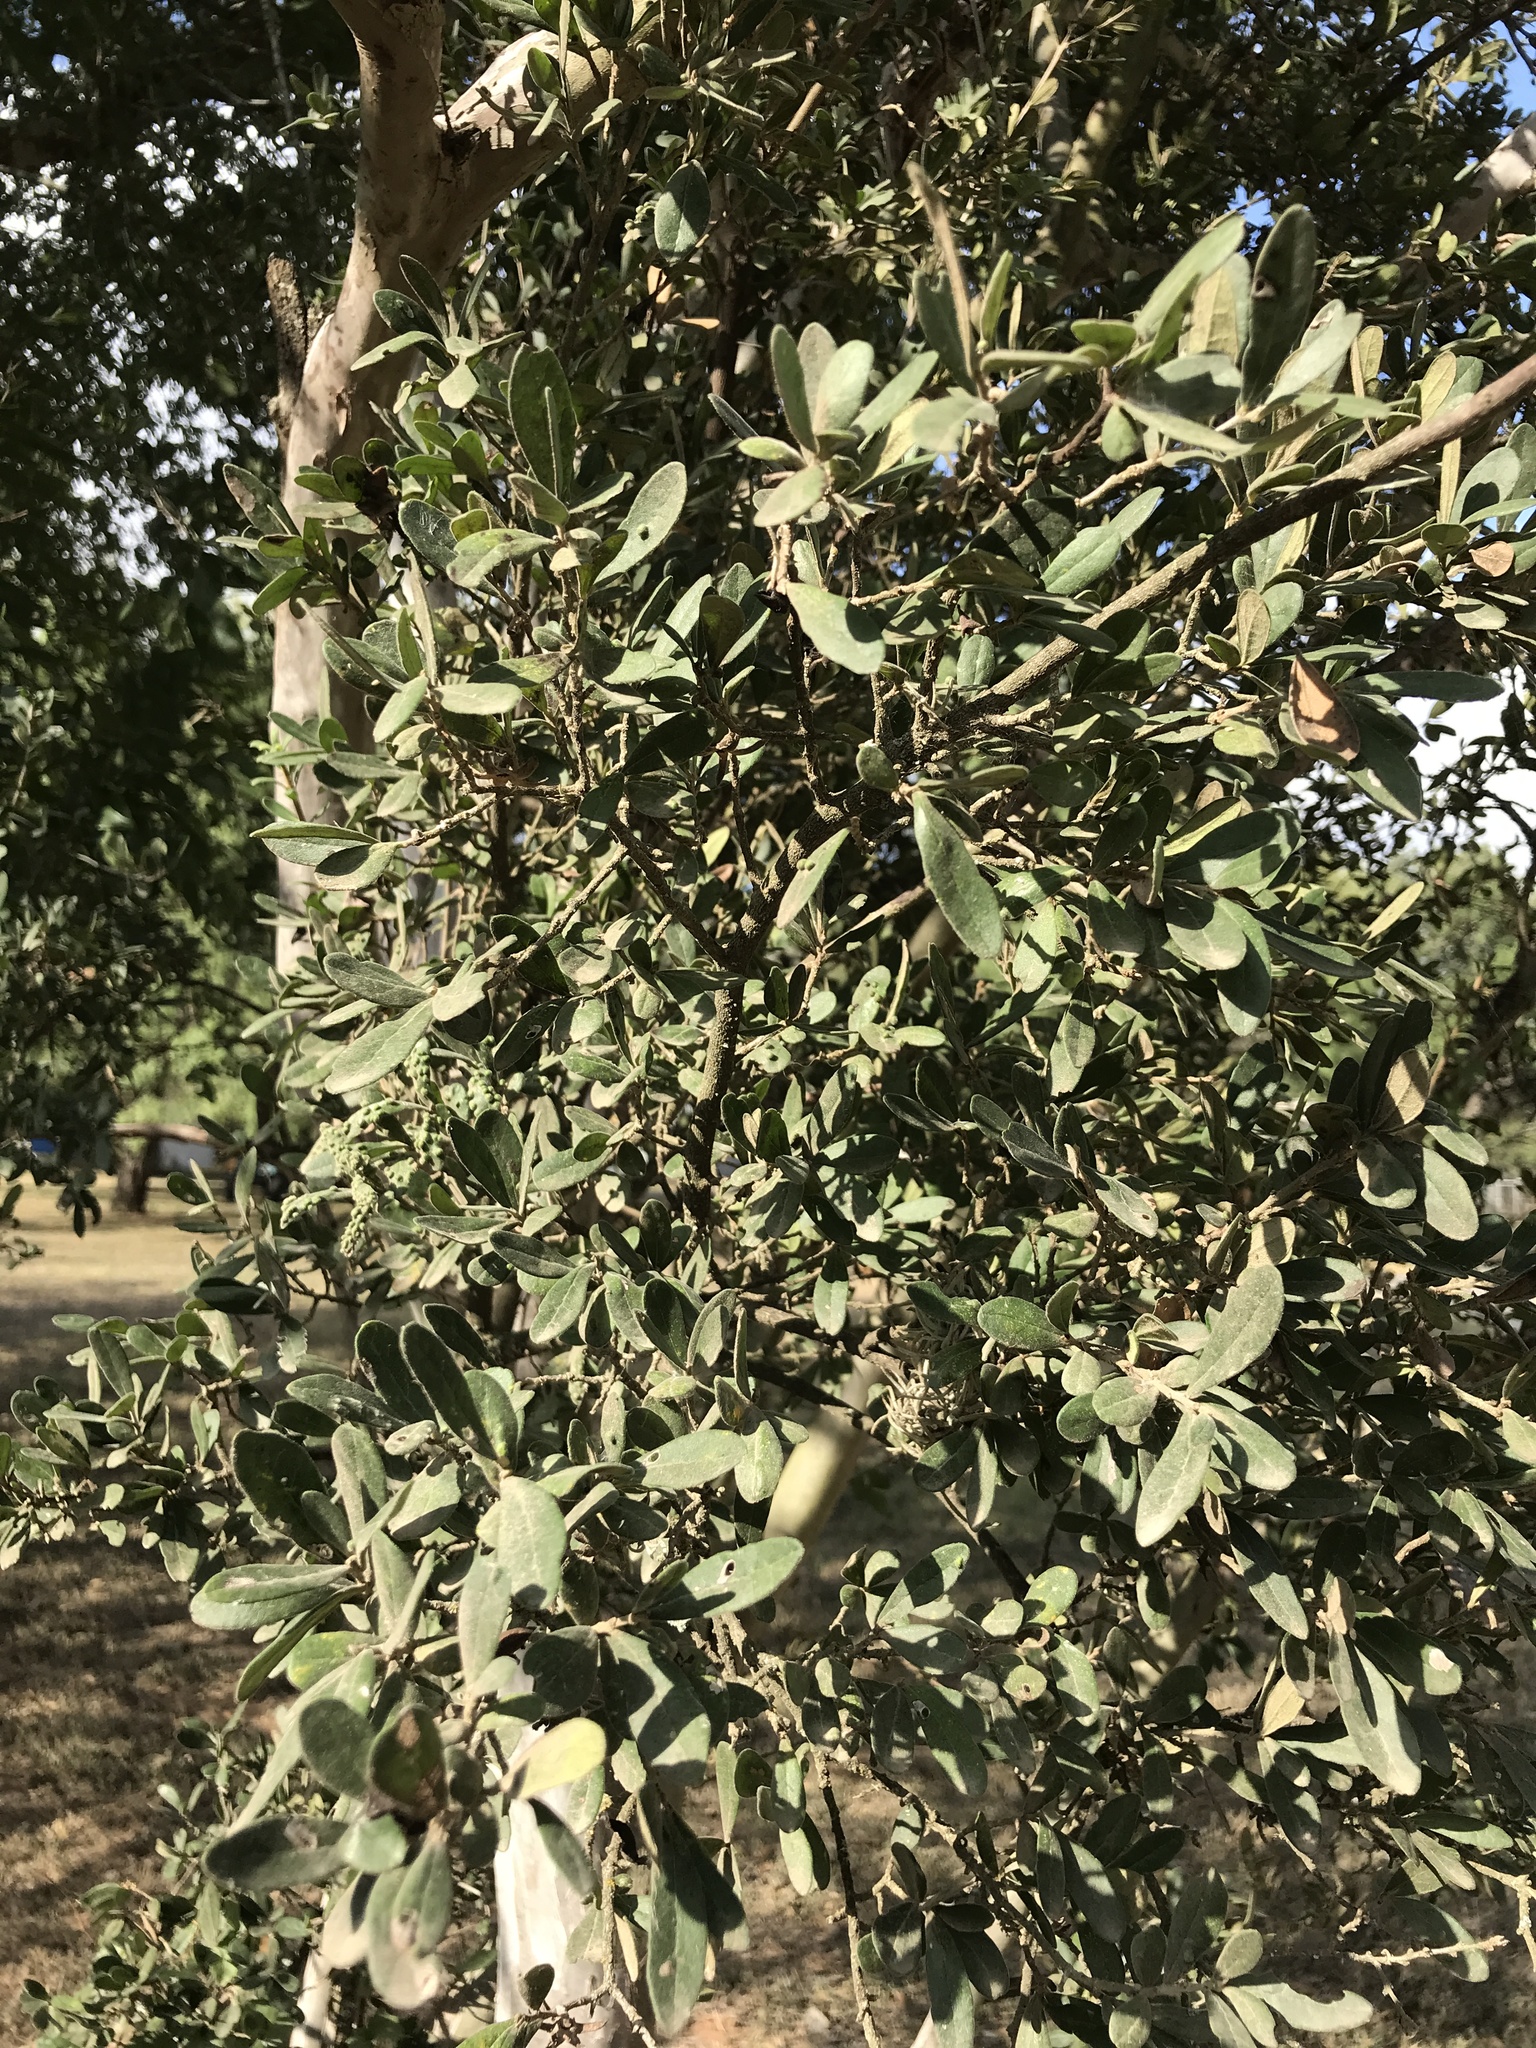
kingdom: Plantae
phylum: Tracheophyta
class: Magnoliopsida
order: Ericales
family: Ebenaceae
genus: Diospyros
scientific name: Diospyros texana
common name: Texas persimmon
